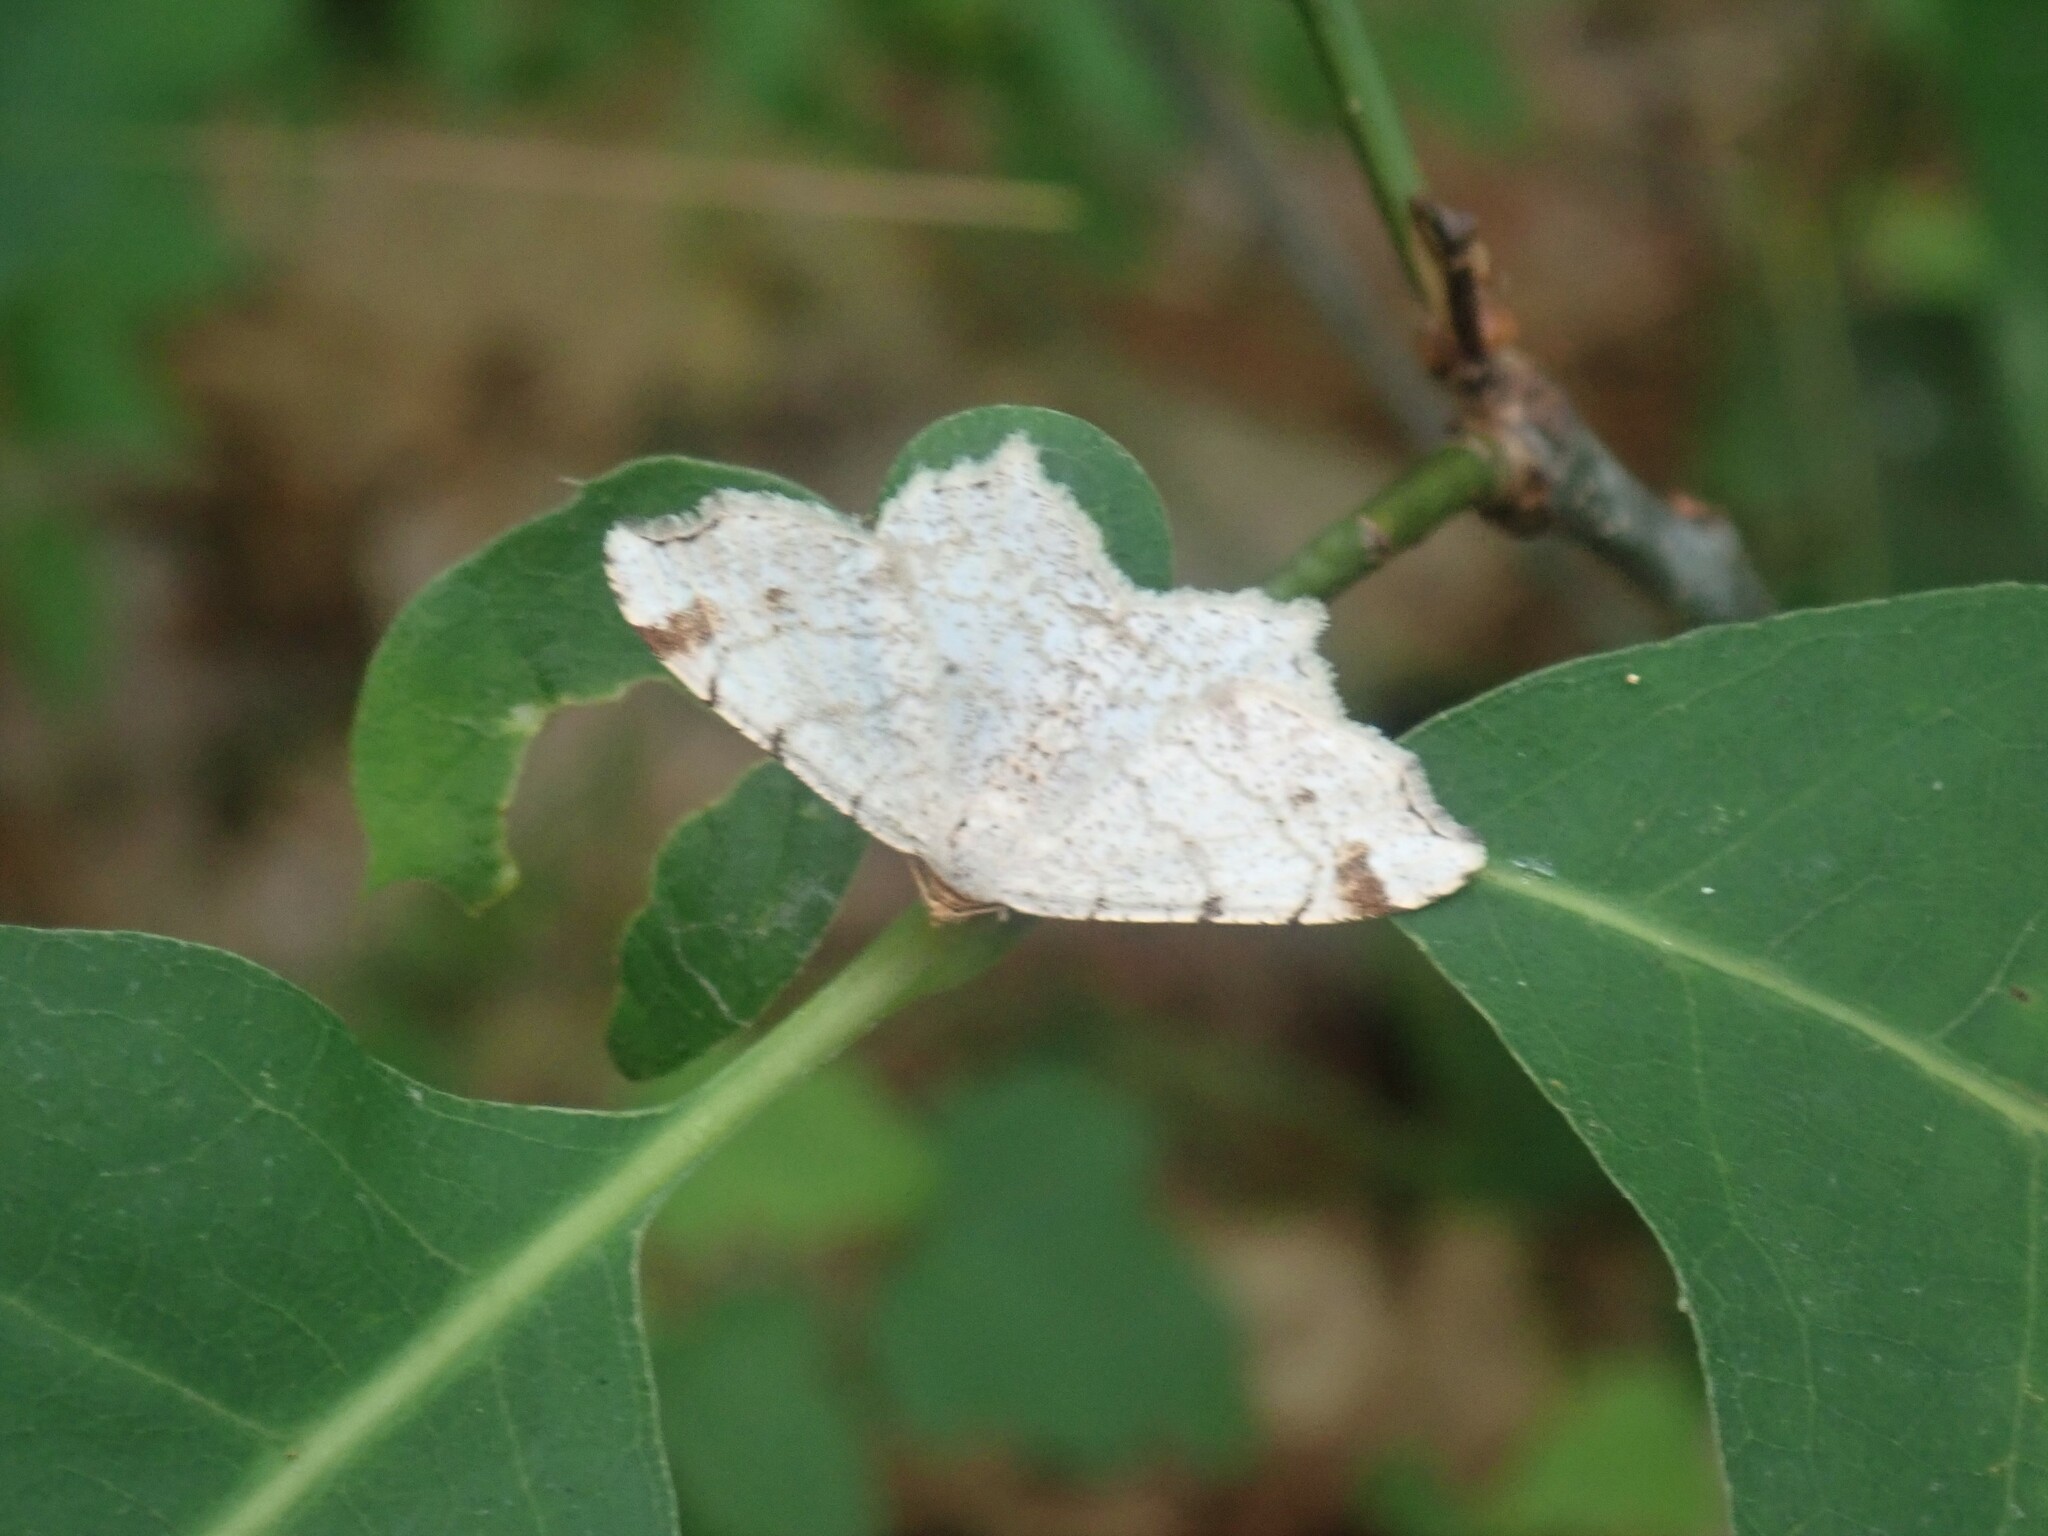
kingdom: Animalia
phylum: Arthropoda
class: Insecta
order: Lepidoptera
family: Geometridae
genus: Macaria
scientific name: Macaria bisignata
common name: Red-headed inchworm
